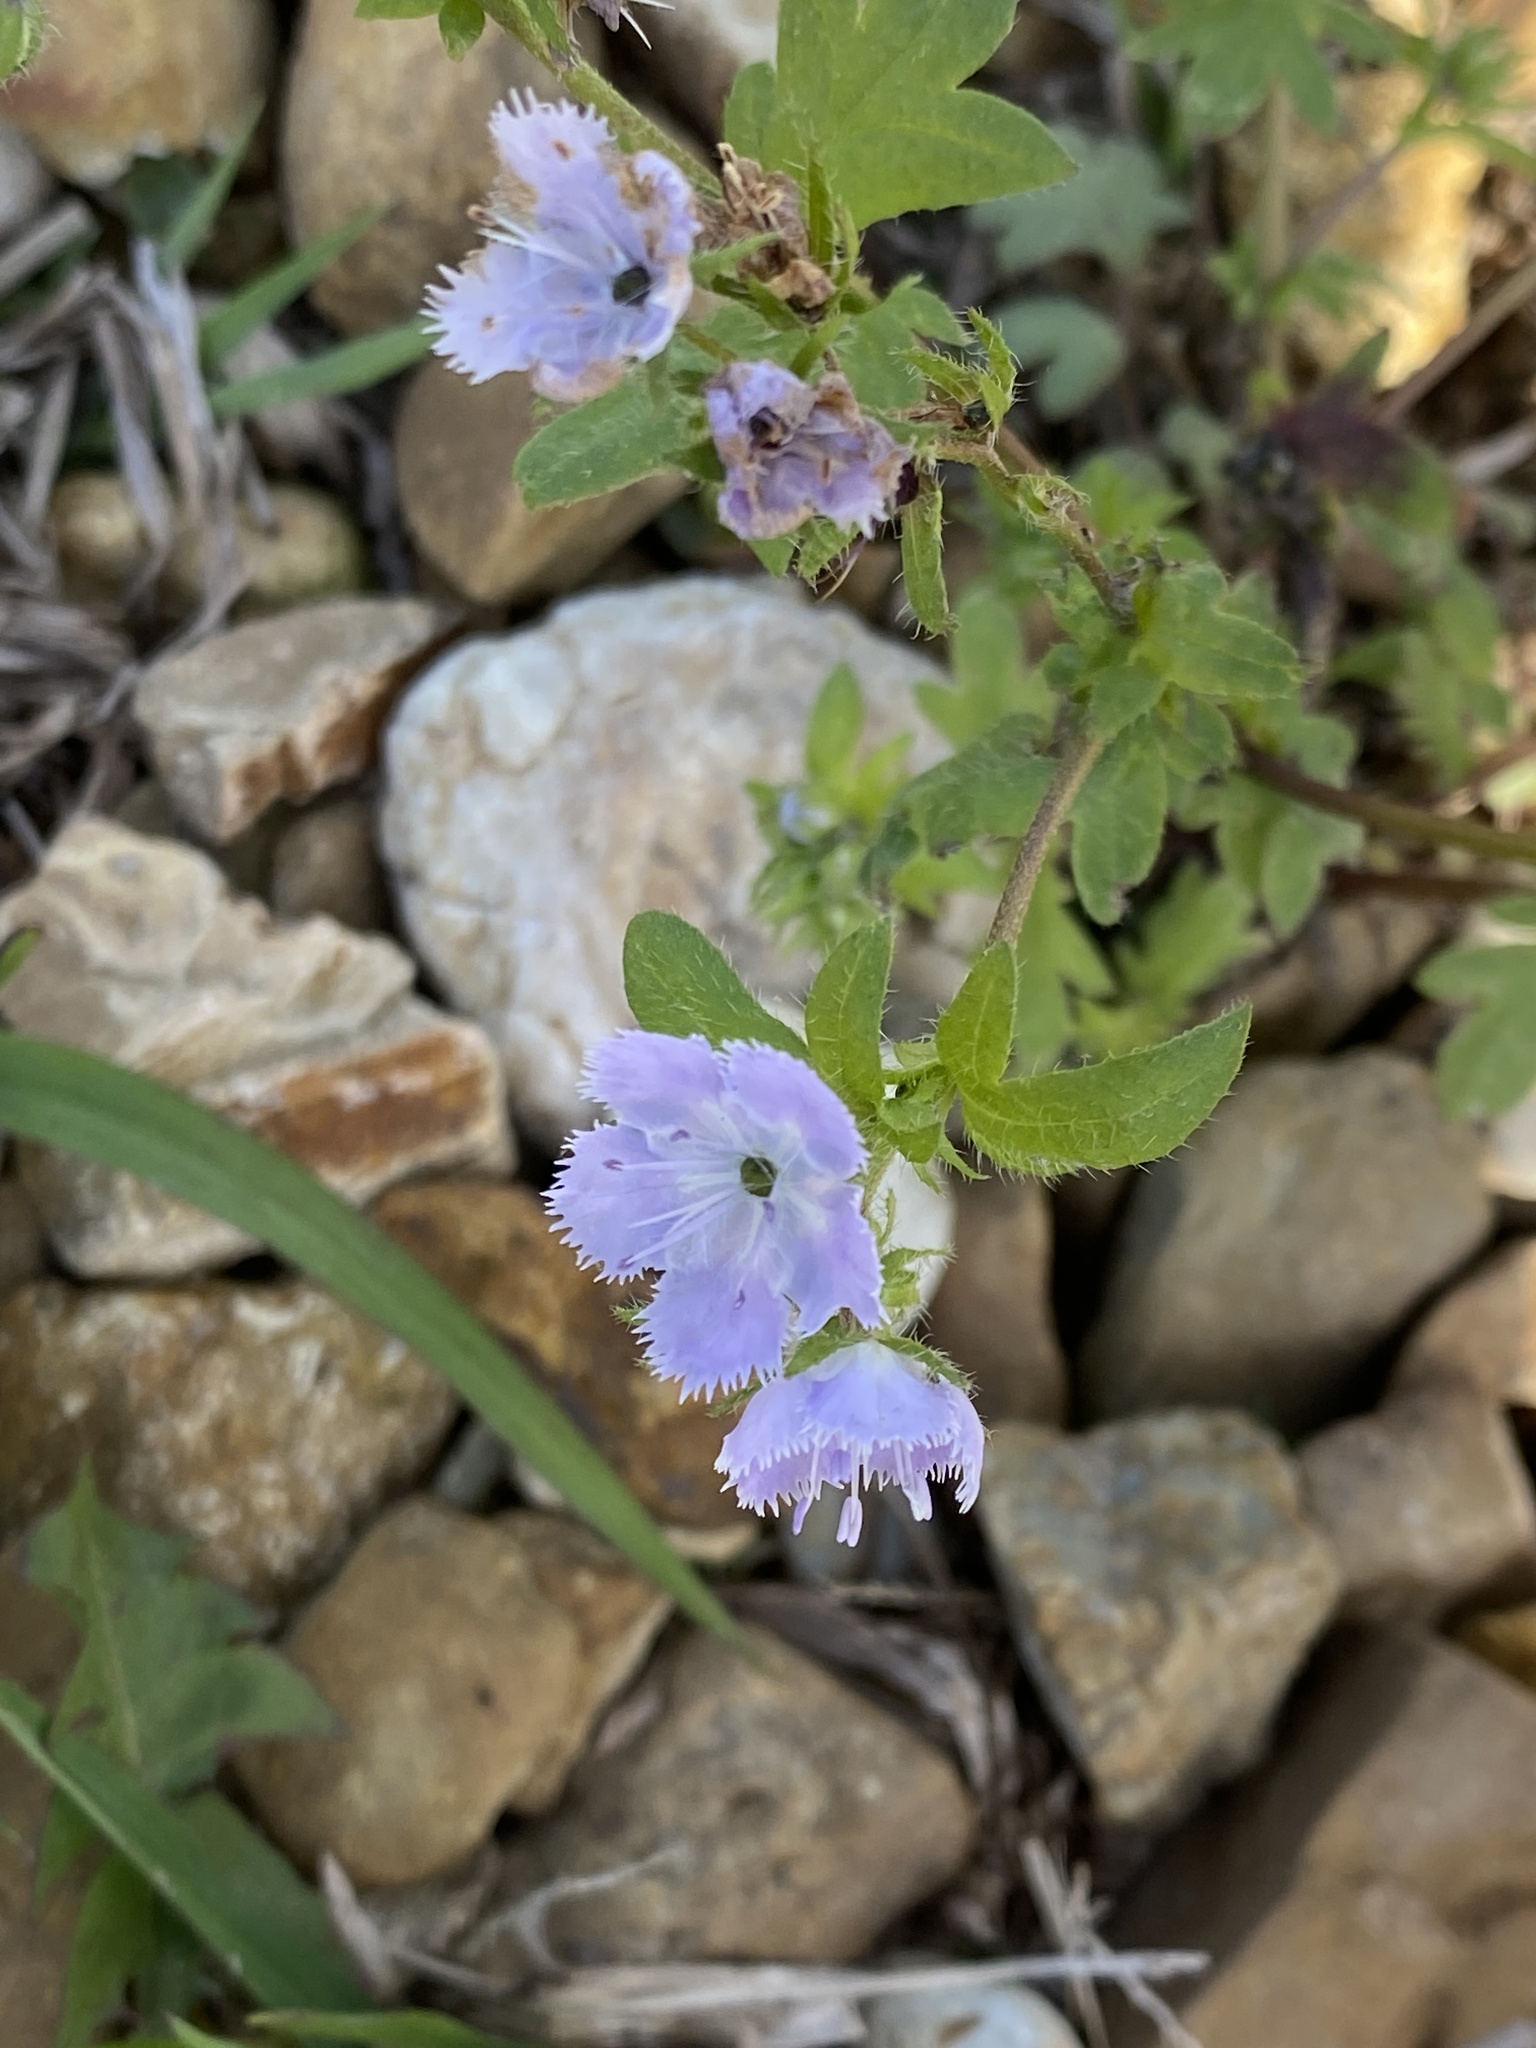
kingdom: Plantae
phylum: Tracheophyta
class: Magnoliopsida
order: Boraginales
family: Hydrophyllaceae
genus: Phacelia
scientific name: Phacelia purshii
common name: Miami-mist
